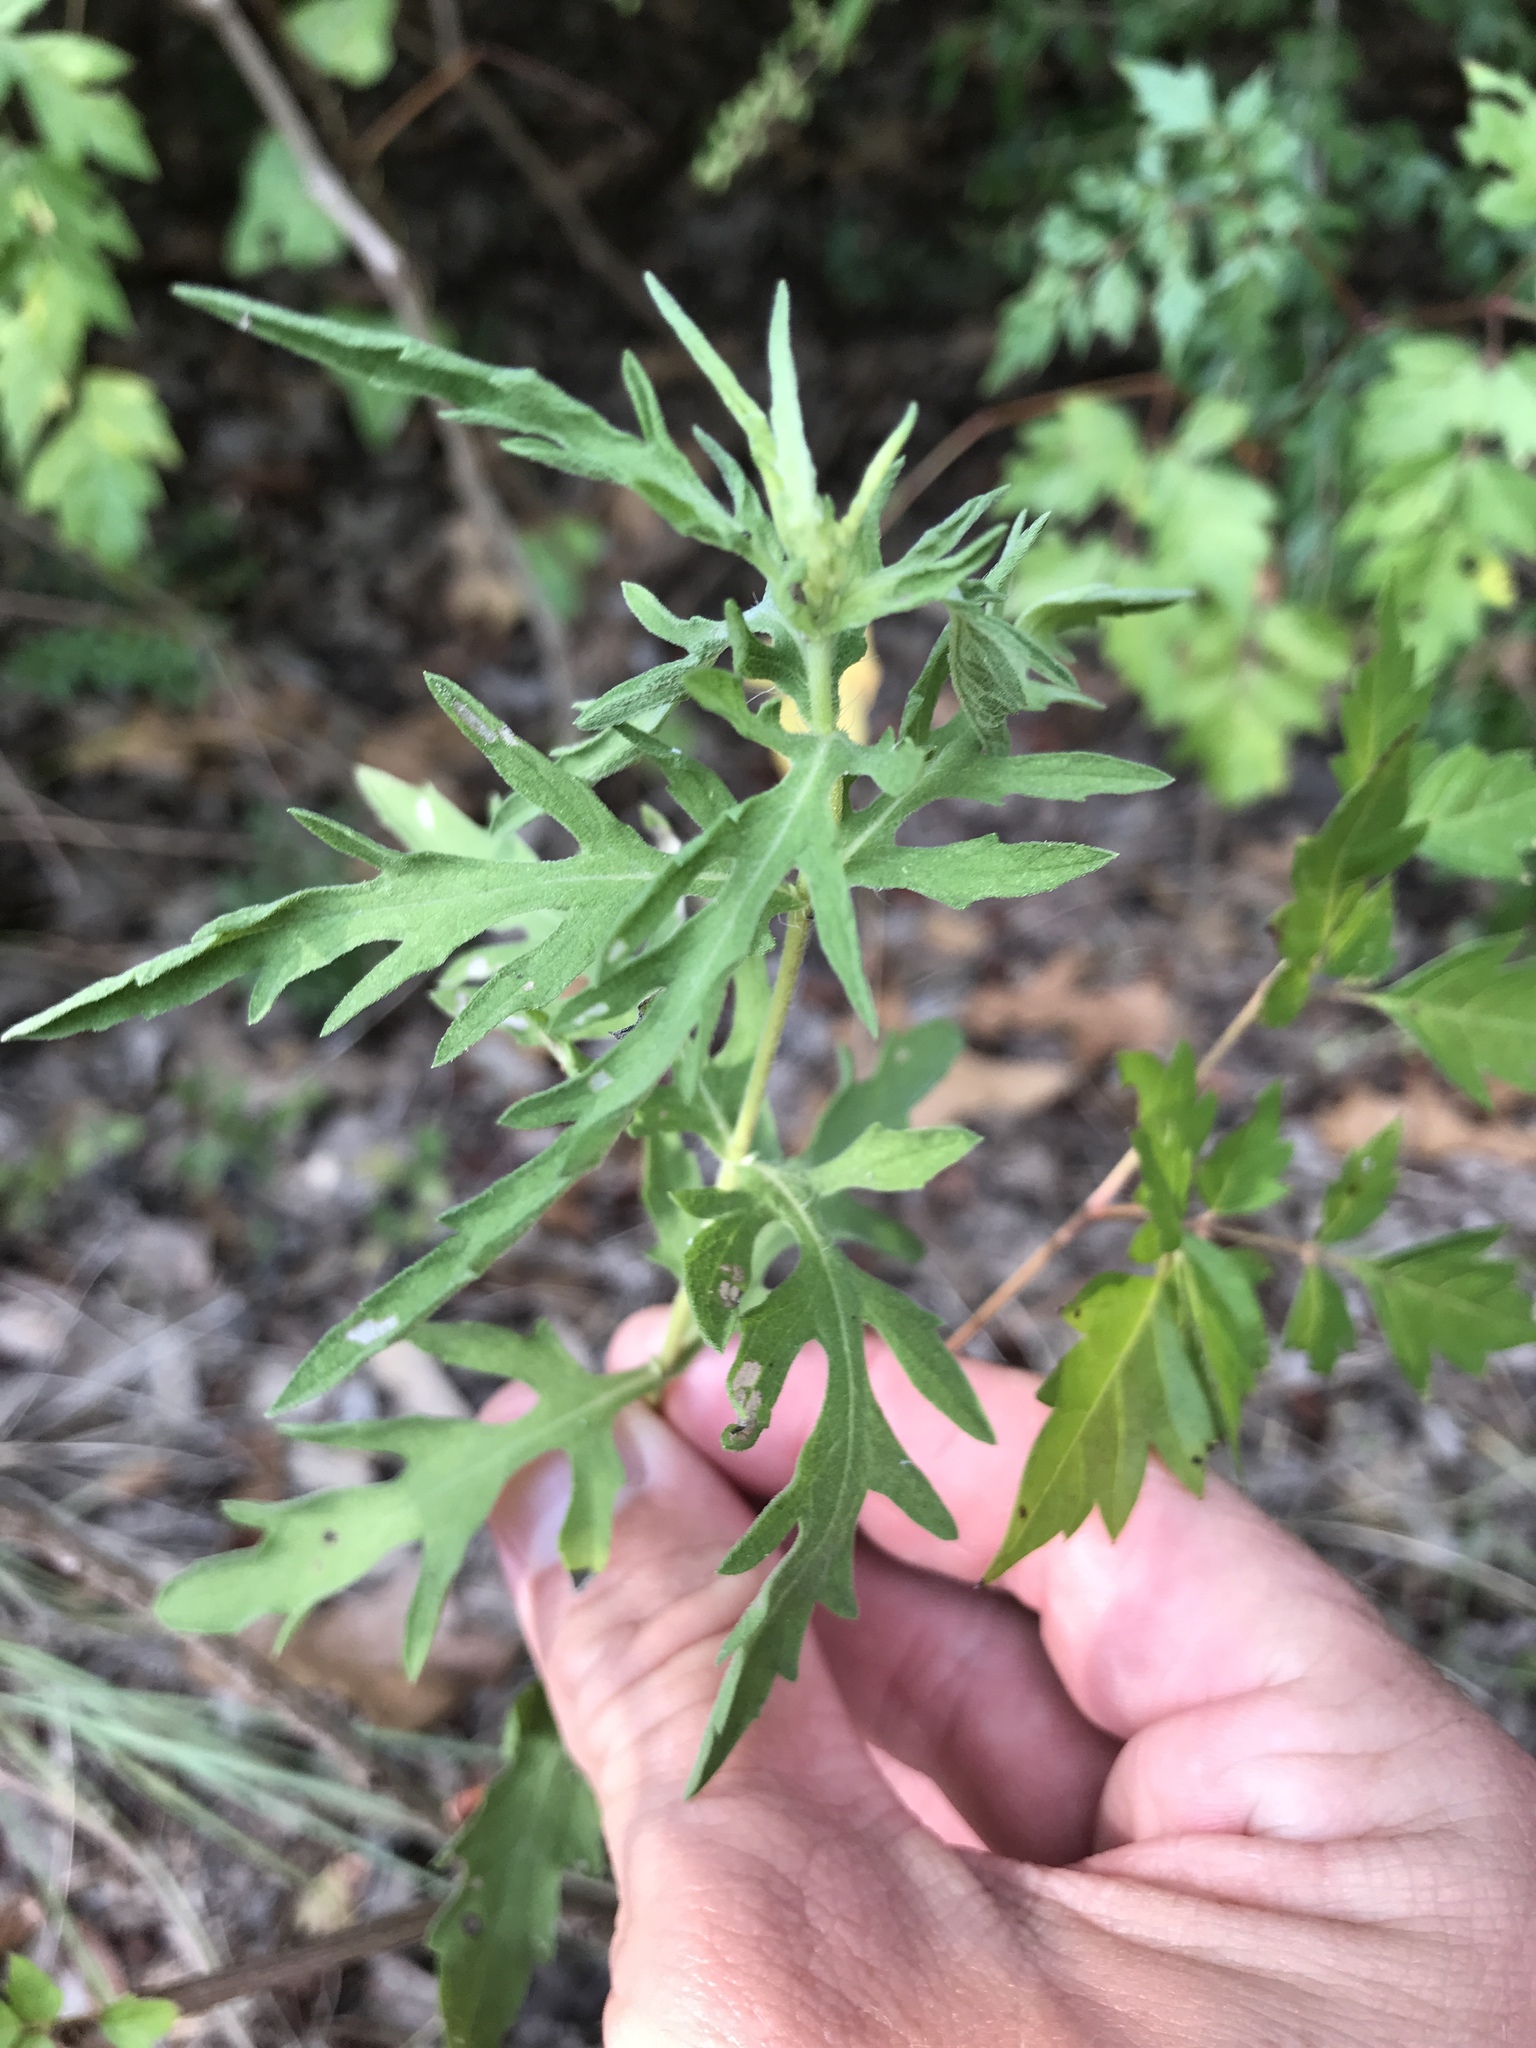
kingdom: Plantae
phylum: Tracheophyta
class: Magnoliopsida
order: Asterales
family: Asteraceae
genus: Ambrosia
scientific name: Ambrosia psilostachya
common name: Perennial ragweed
